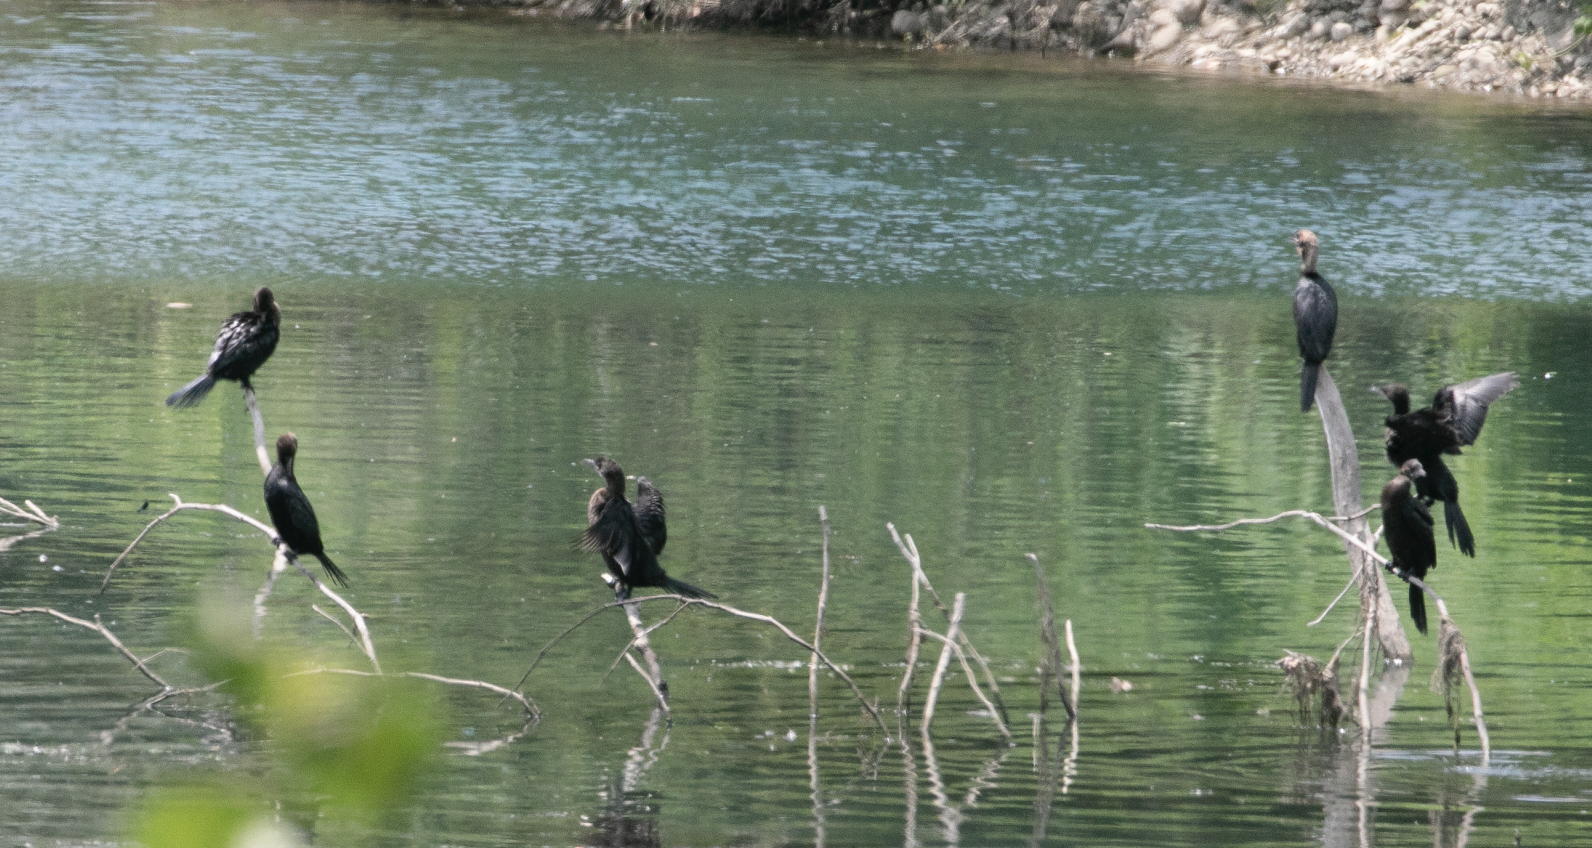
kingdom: Animalia
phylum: Chordata
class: Aves
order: Suliformes
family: Phalacrocoracidae
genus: Microcarbo
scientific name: Microcarbo pygmaeus
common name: Pygmy cormorant
